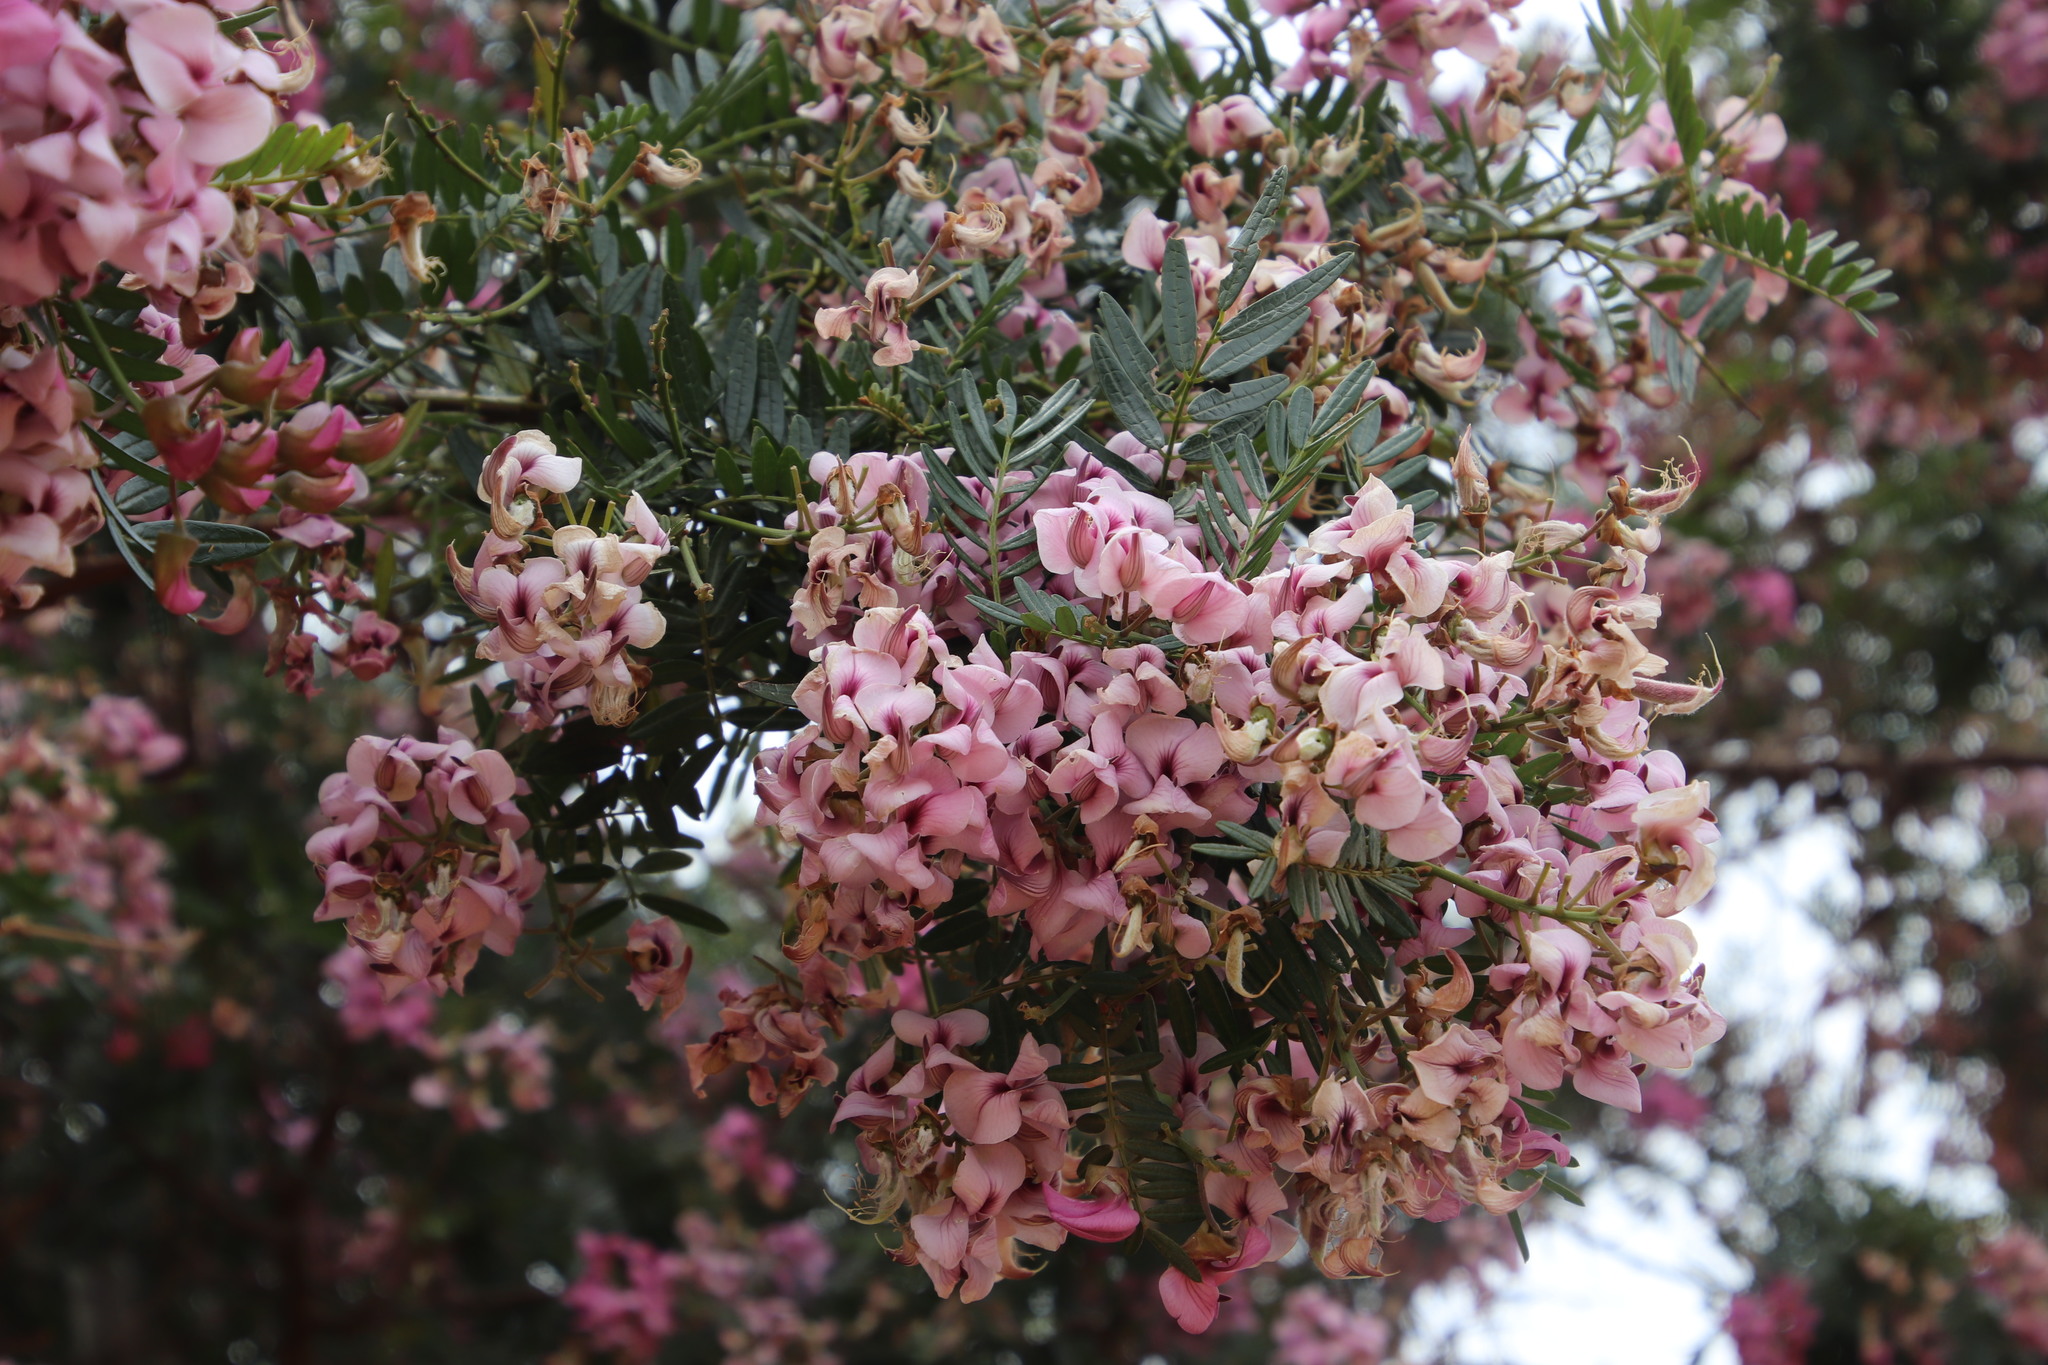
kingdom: Plantae
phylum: Tracheophyta
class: Magnoliopsida
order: Fabales
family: Fabaceae
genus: Virgilia
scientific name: Virgilia oroboides
